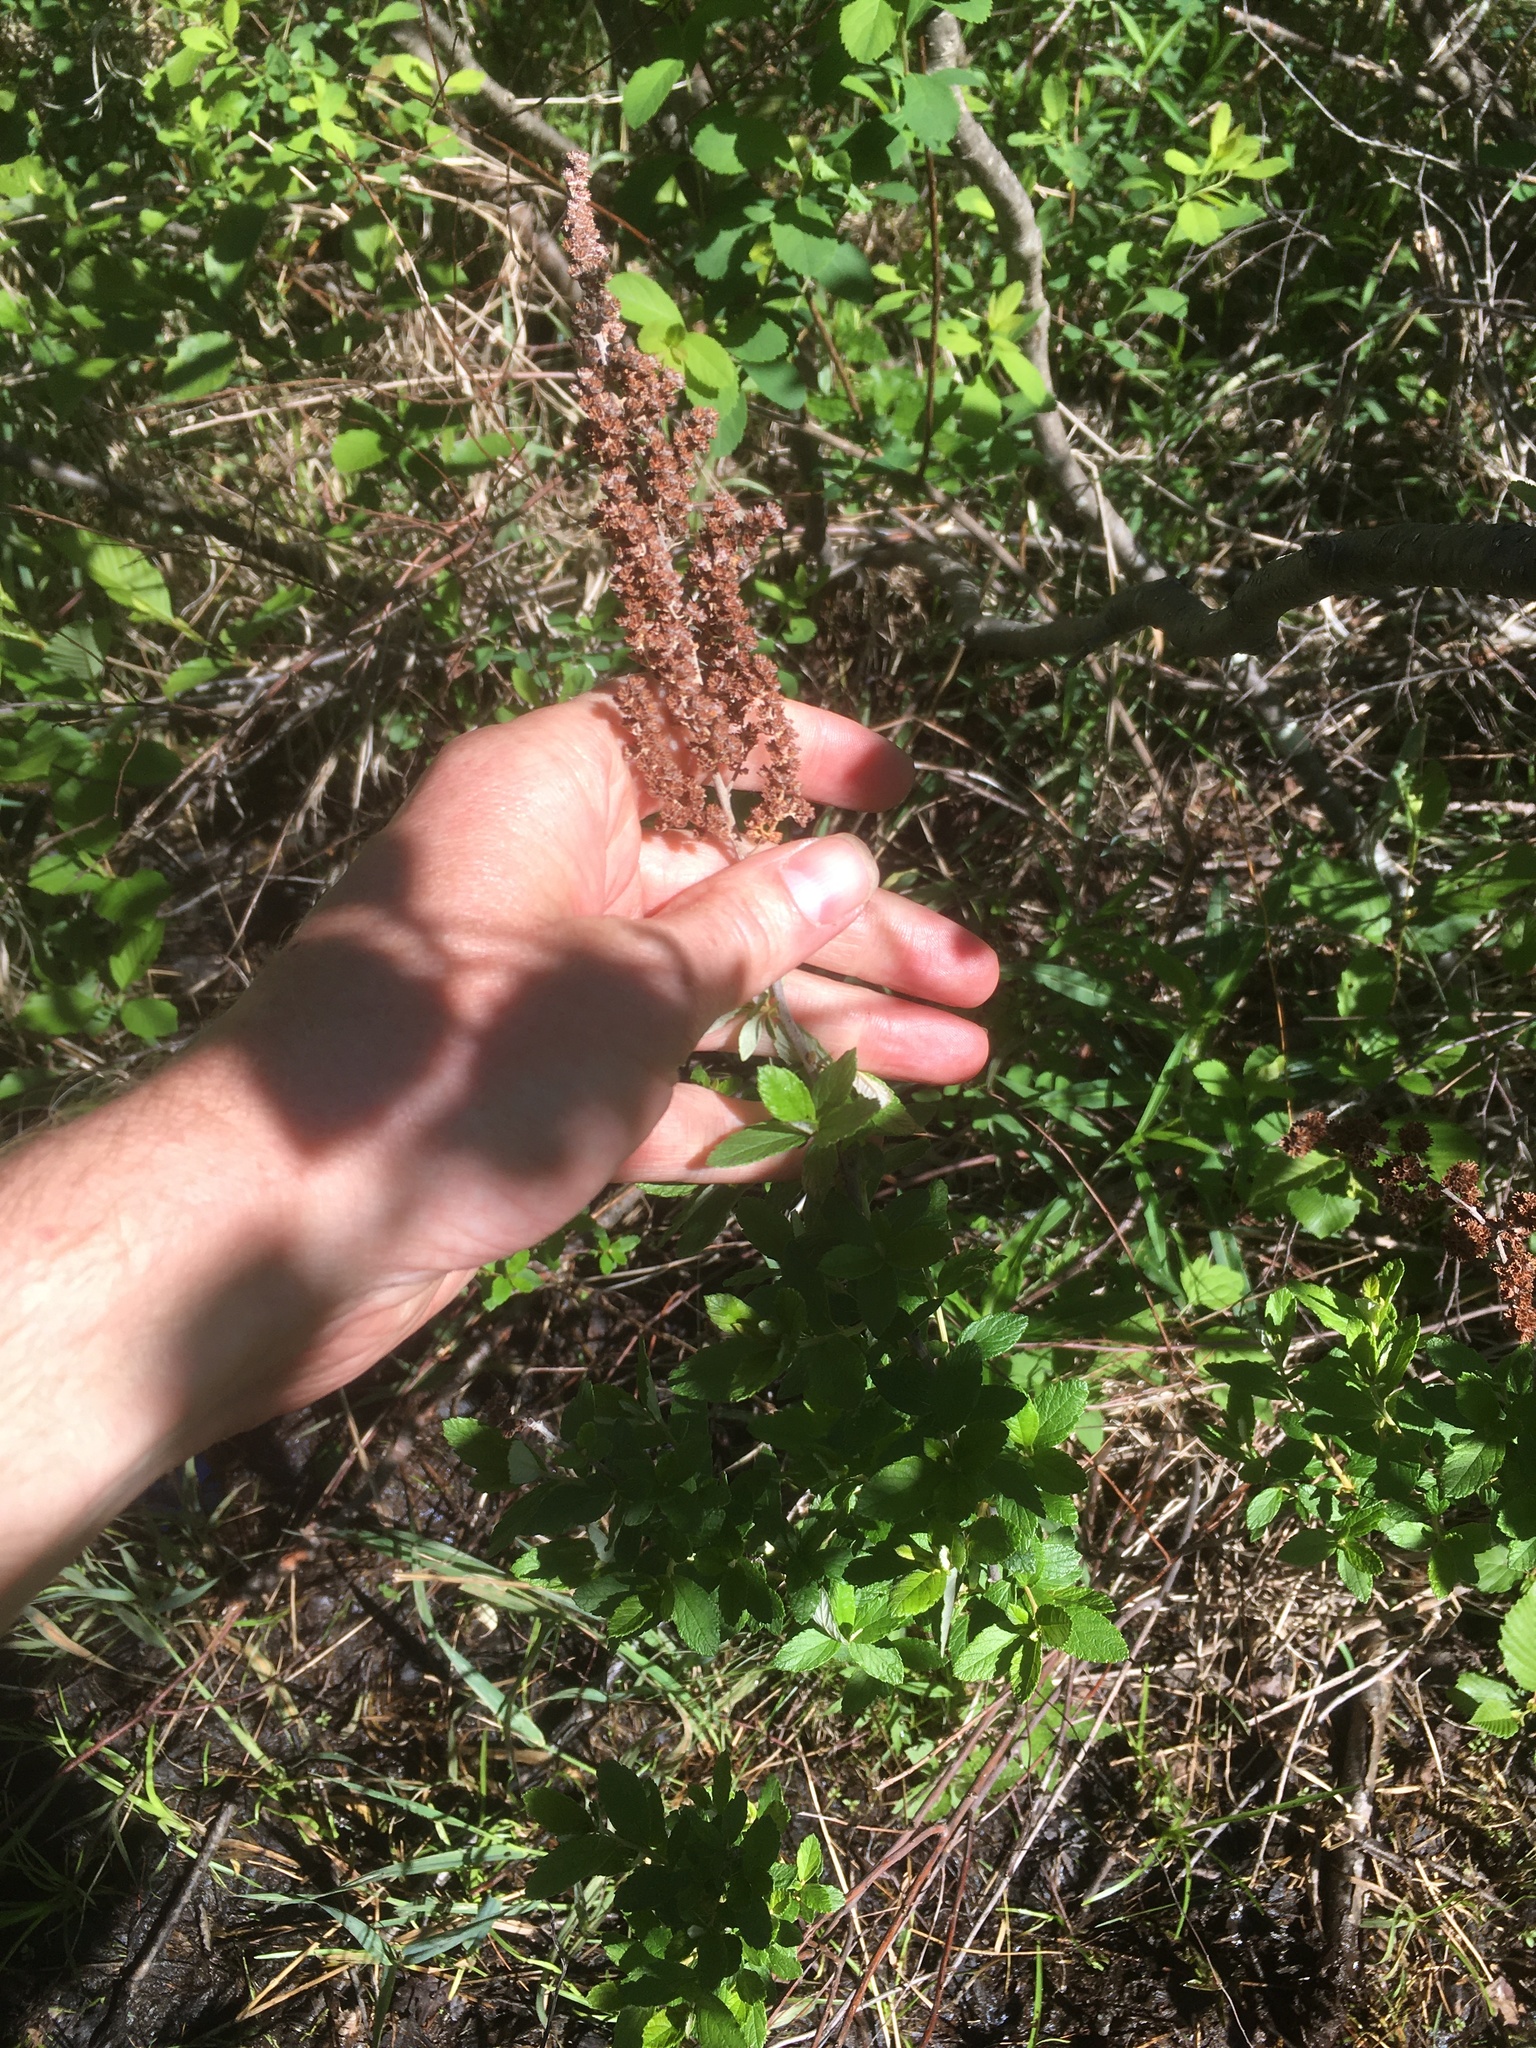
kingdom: Plantae
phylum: Tracheophyta
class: Magnoliopsida
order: Rosales
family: Rosaceae
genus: Spiraea
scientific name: Spiraea tomentosa
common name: Hardhack
